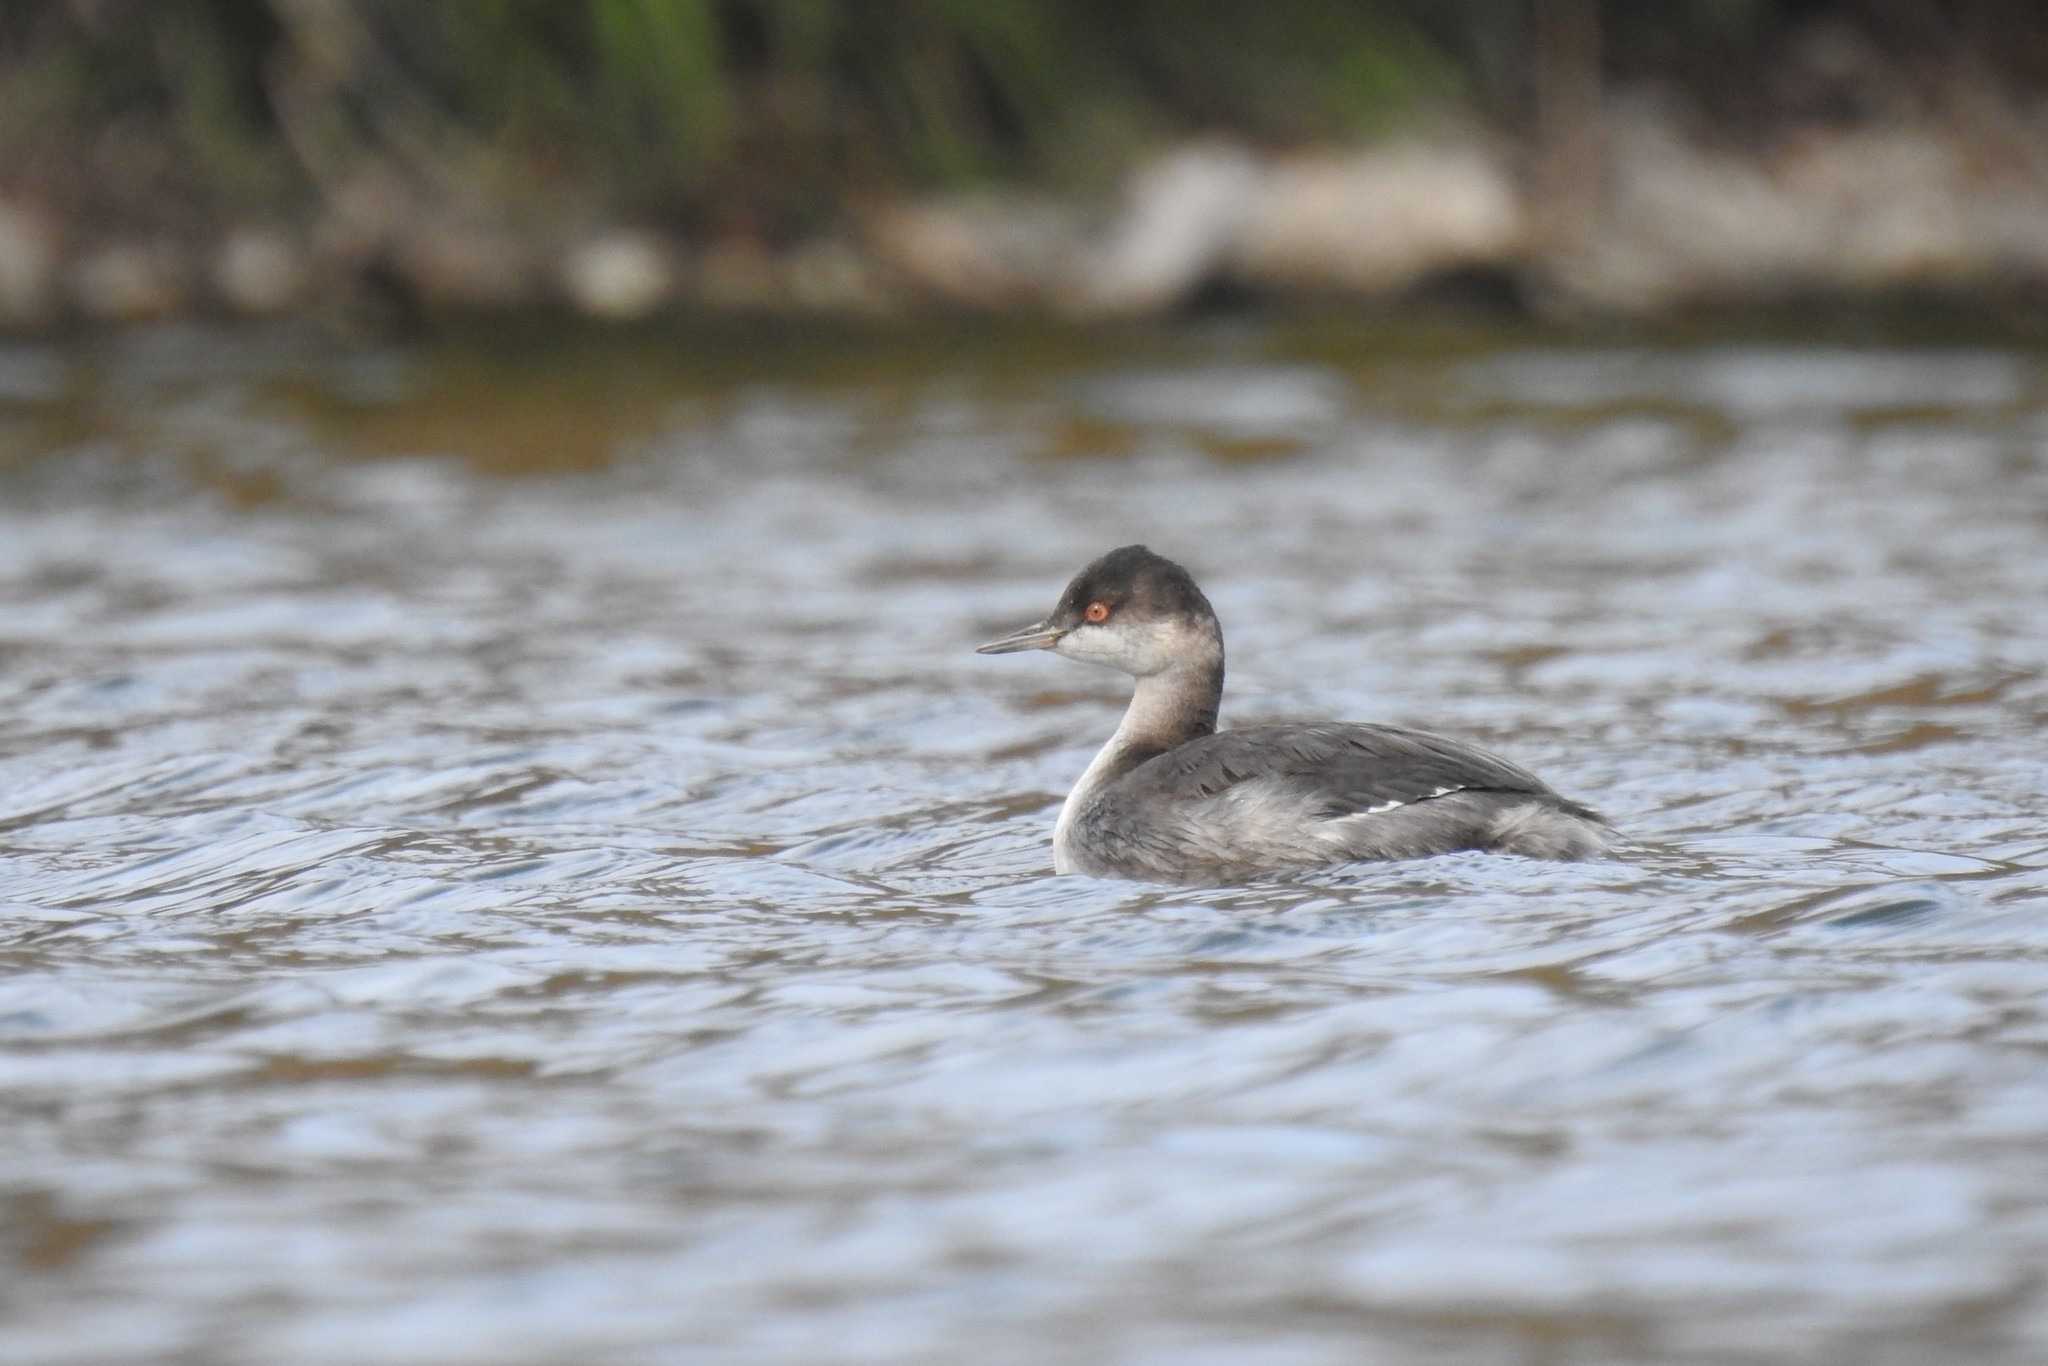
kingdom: Animalia
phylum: Chordata
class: Aves
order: Podicipediformes
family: Podicipedidae
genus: Podiceps
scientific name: Podiceps nigricollis
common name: Black-necked grebe
